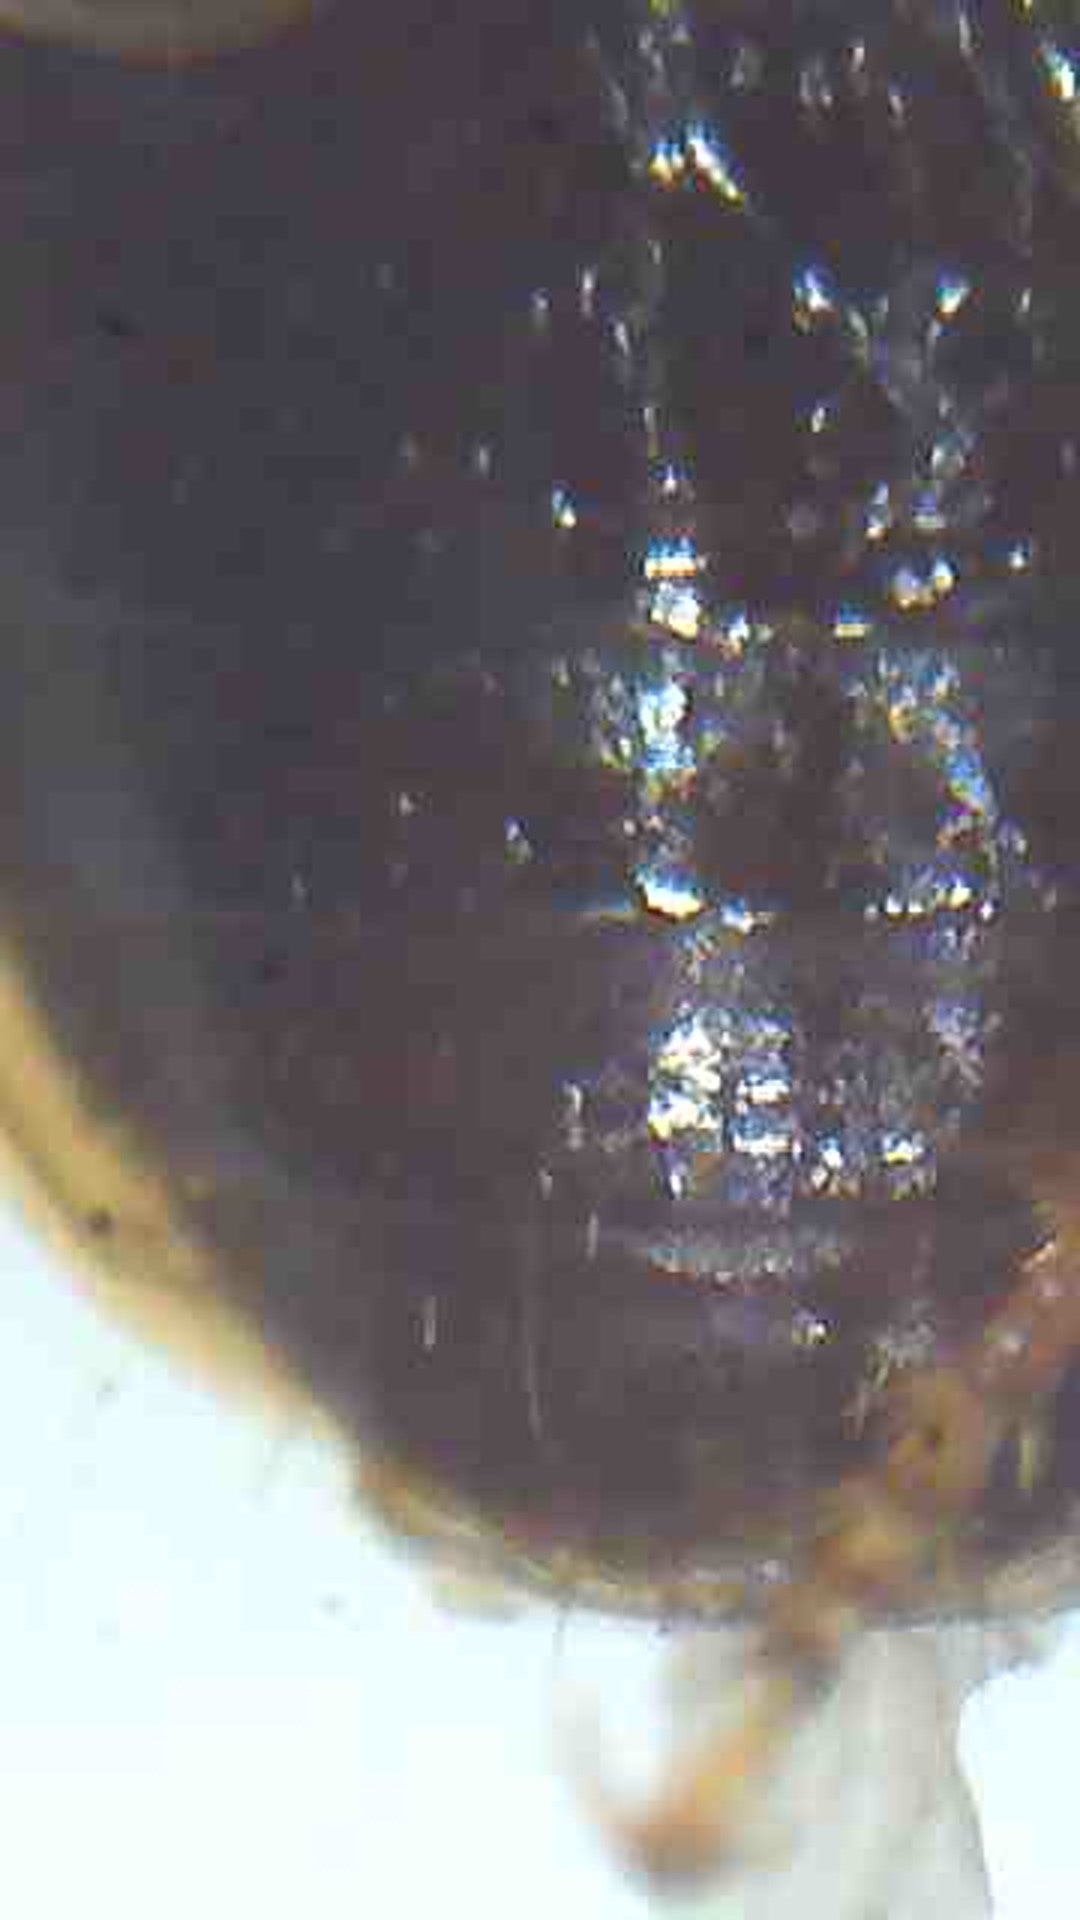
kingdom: Animalia
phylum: Arthropoda
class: Insecta
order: Coleoptera
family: Carabidae
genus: Lecanomerus
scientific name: Lecanomerus atriceps
